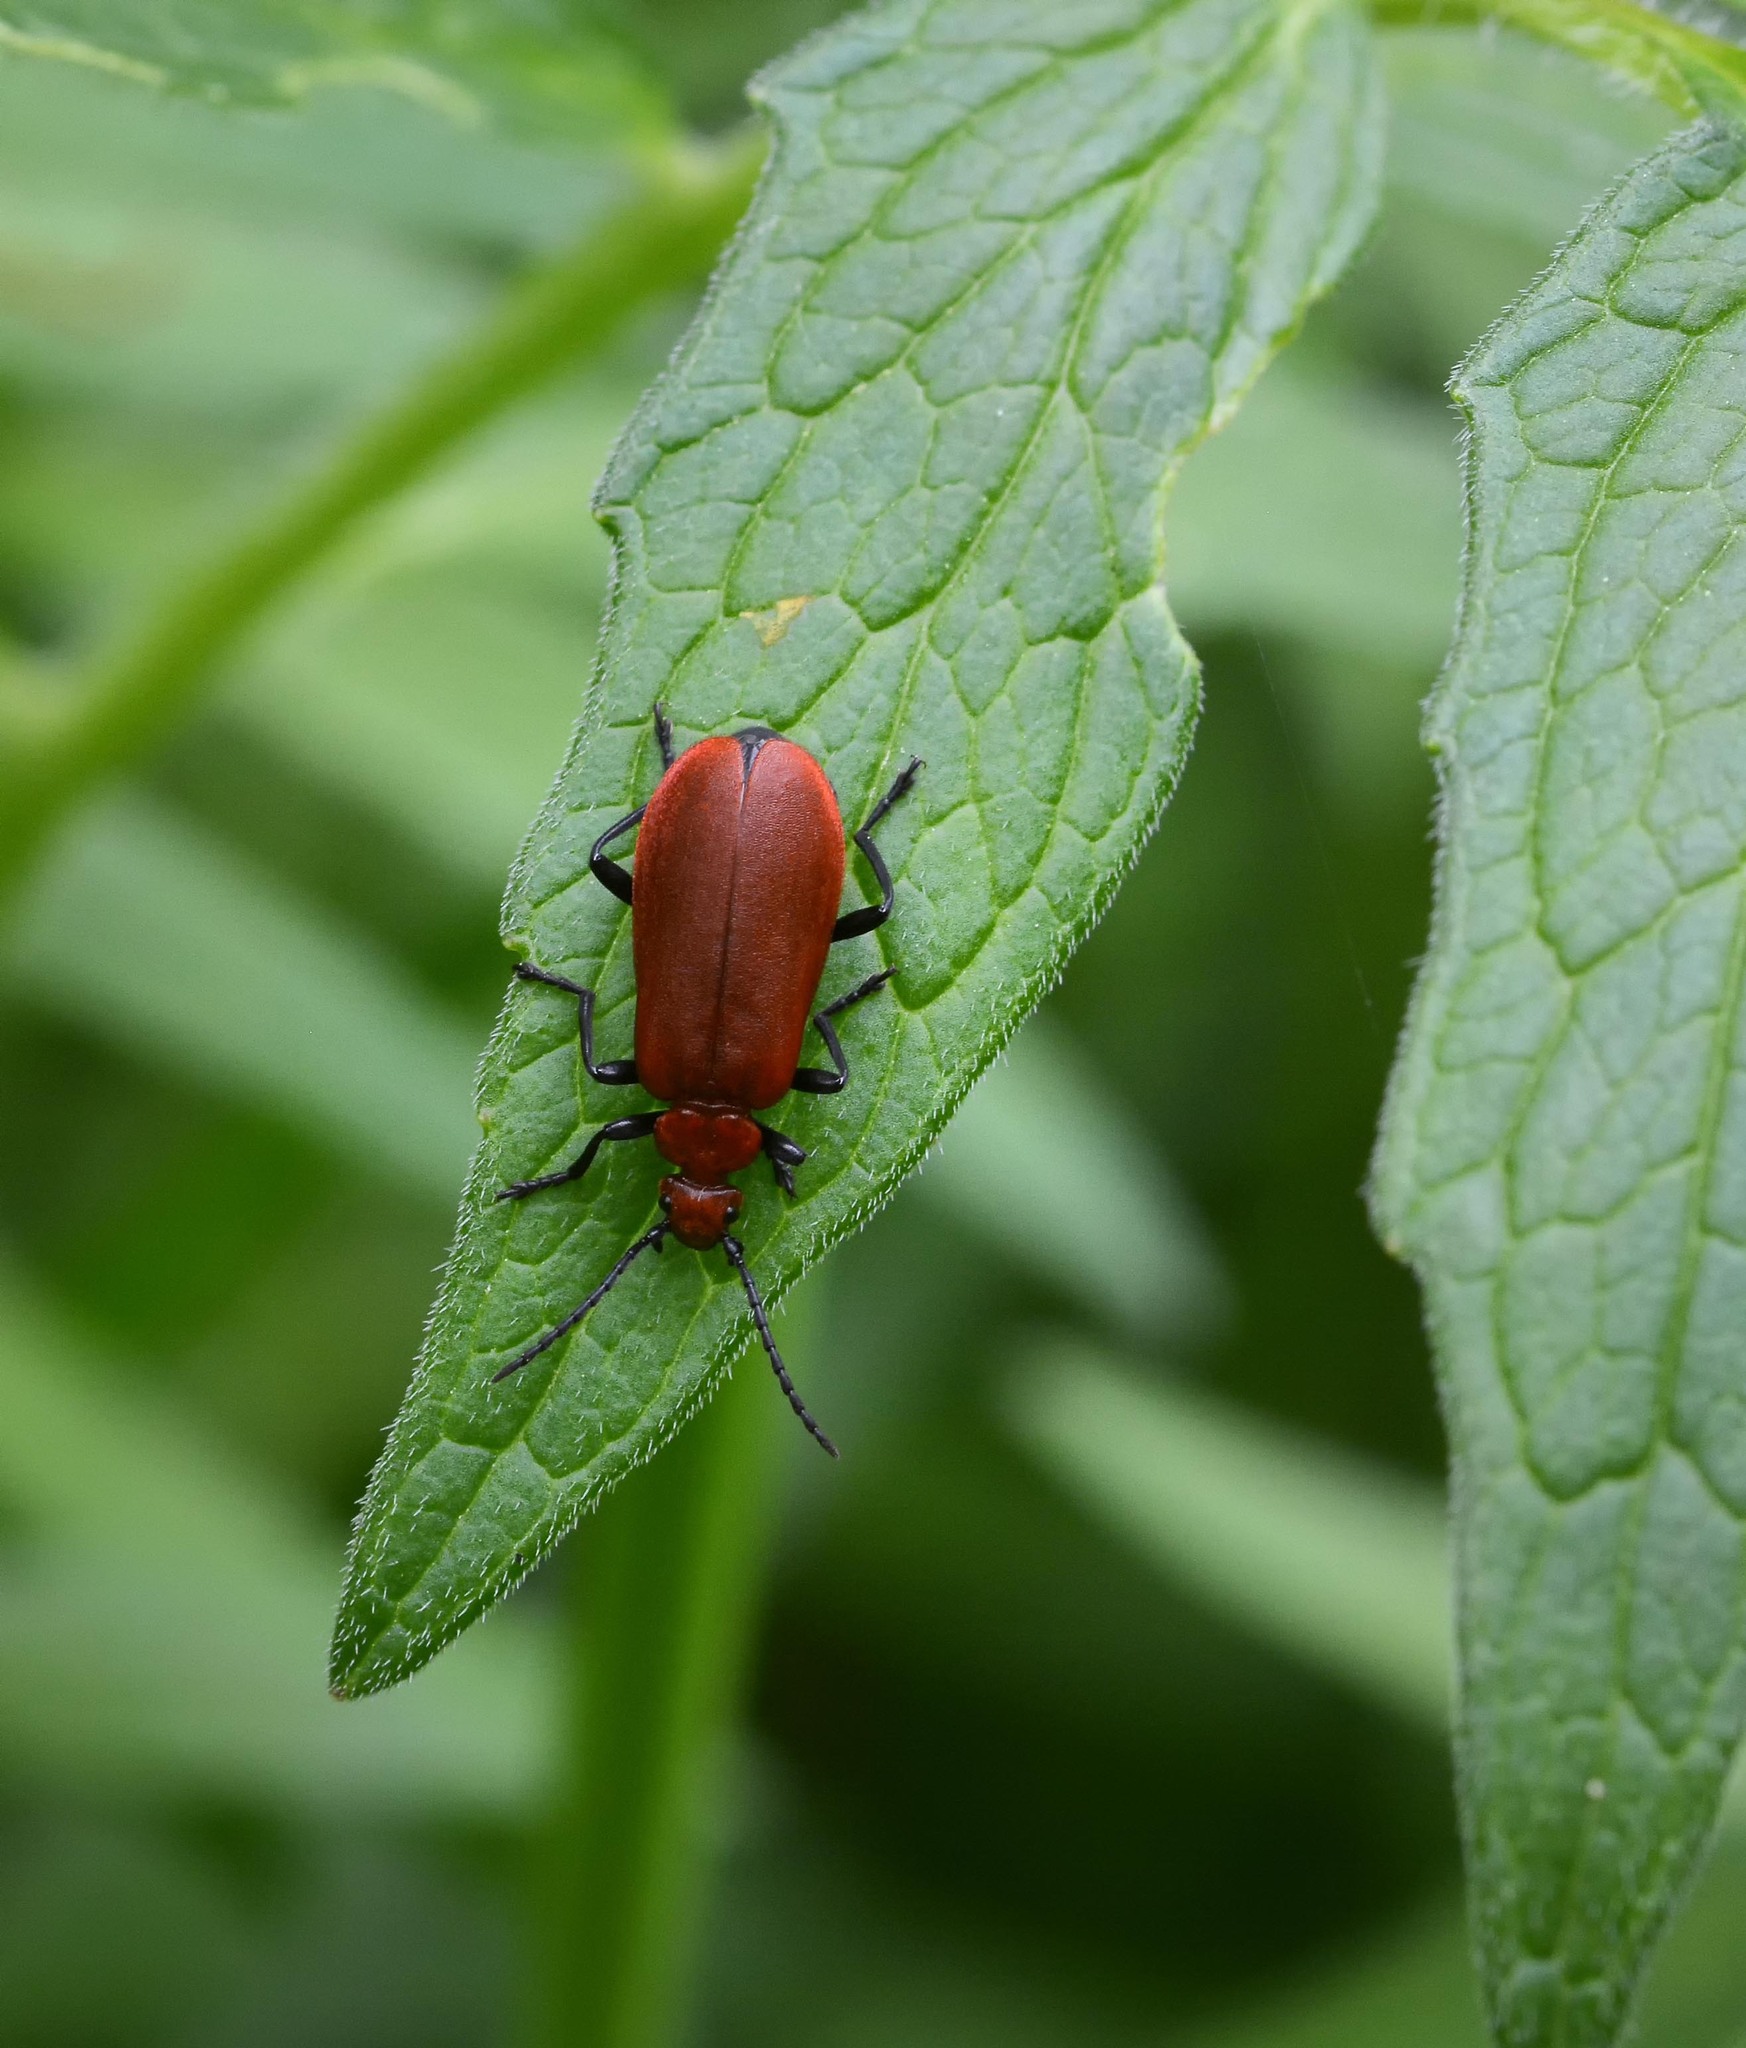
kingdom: Animalia
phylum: Arthropoda
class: Insecta
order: Coleoptera
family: Pyrochroidae
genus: Pyrochroa
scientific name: Pyrochroa serraticornis
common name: Red-headed cardinal beetle
